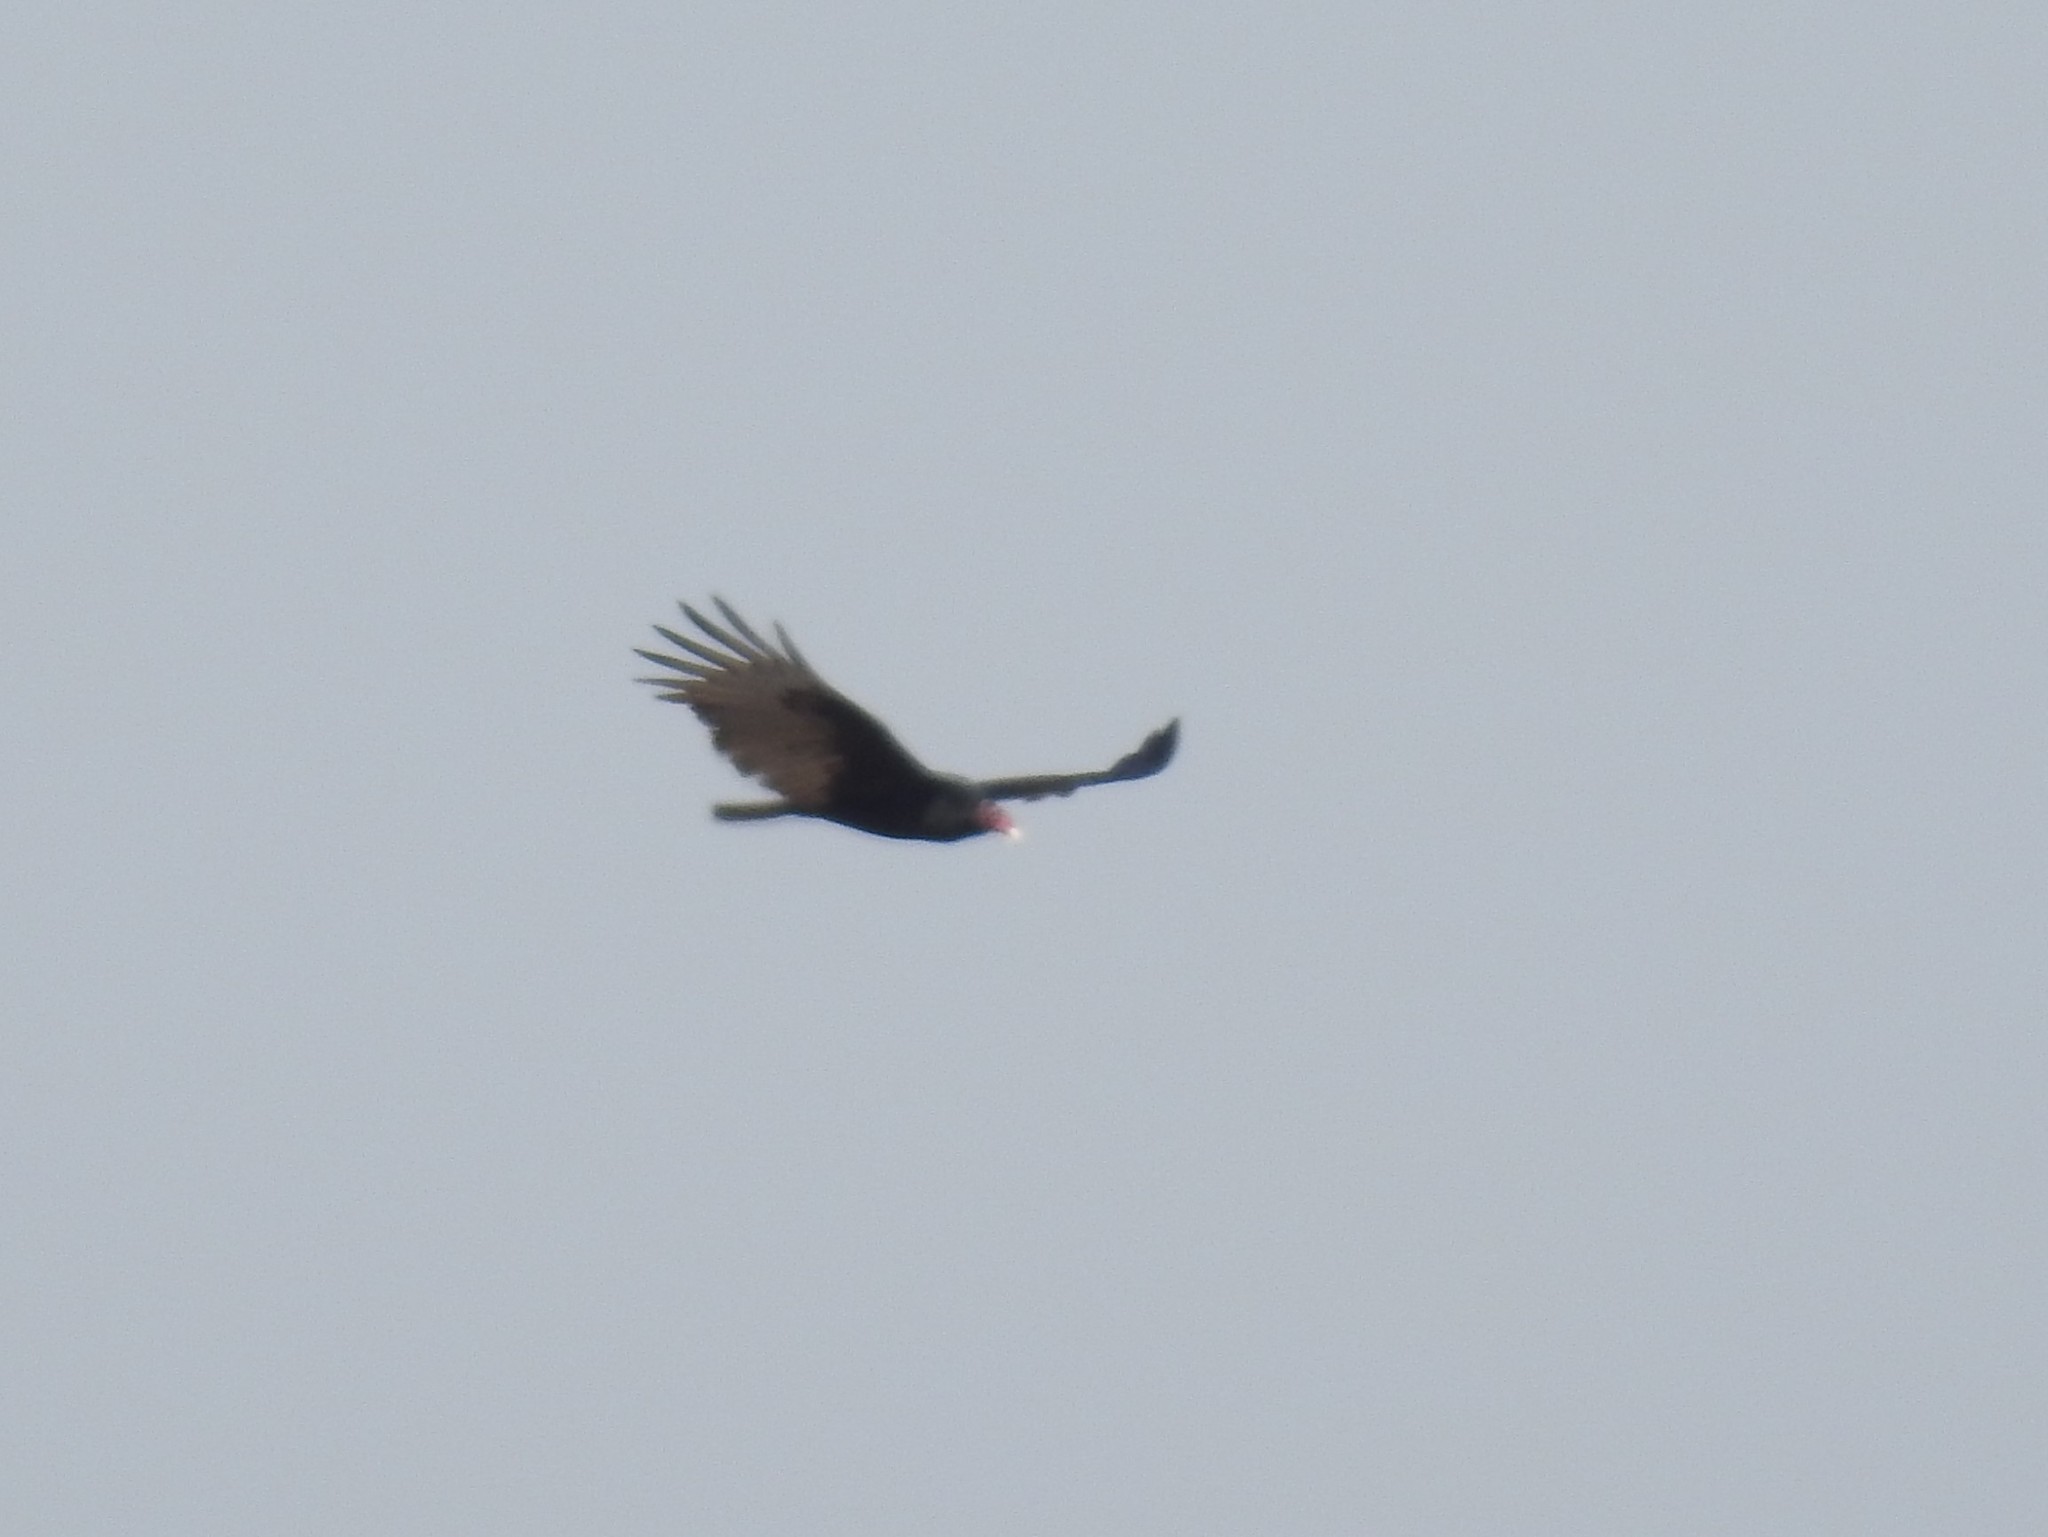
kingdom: Animalia
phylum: Chordata
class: Aves
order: Accipitriformes
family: Cathartidae
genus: Cathartes
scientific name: Cathartes aura
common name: Turkey vulture
